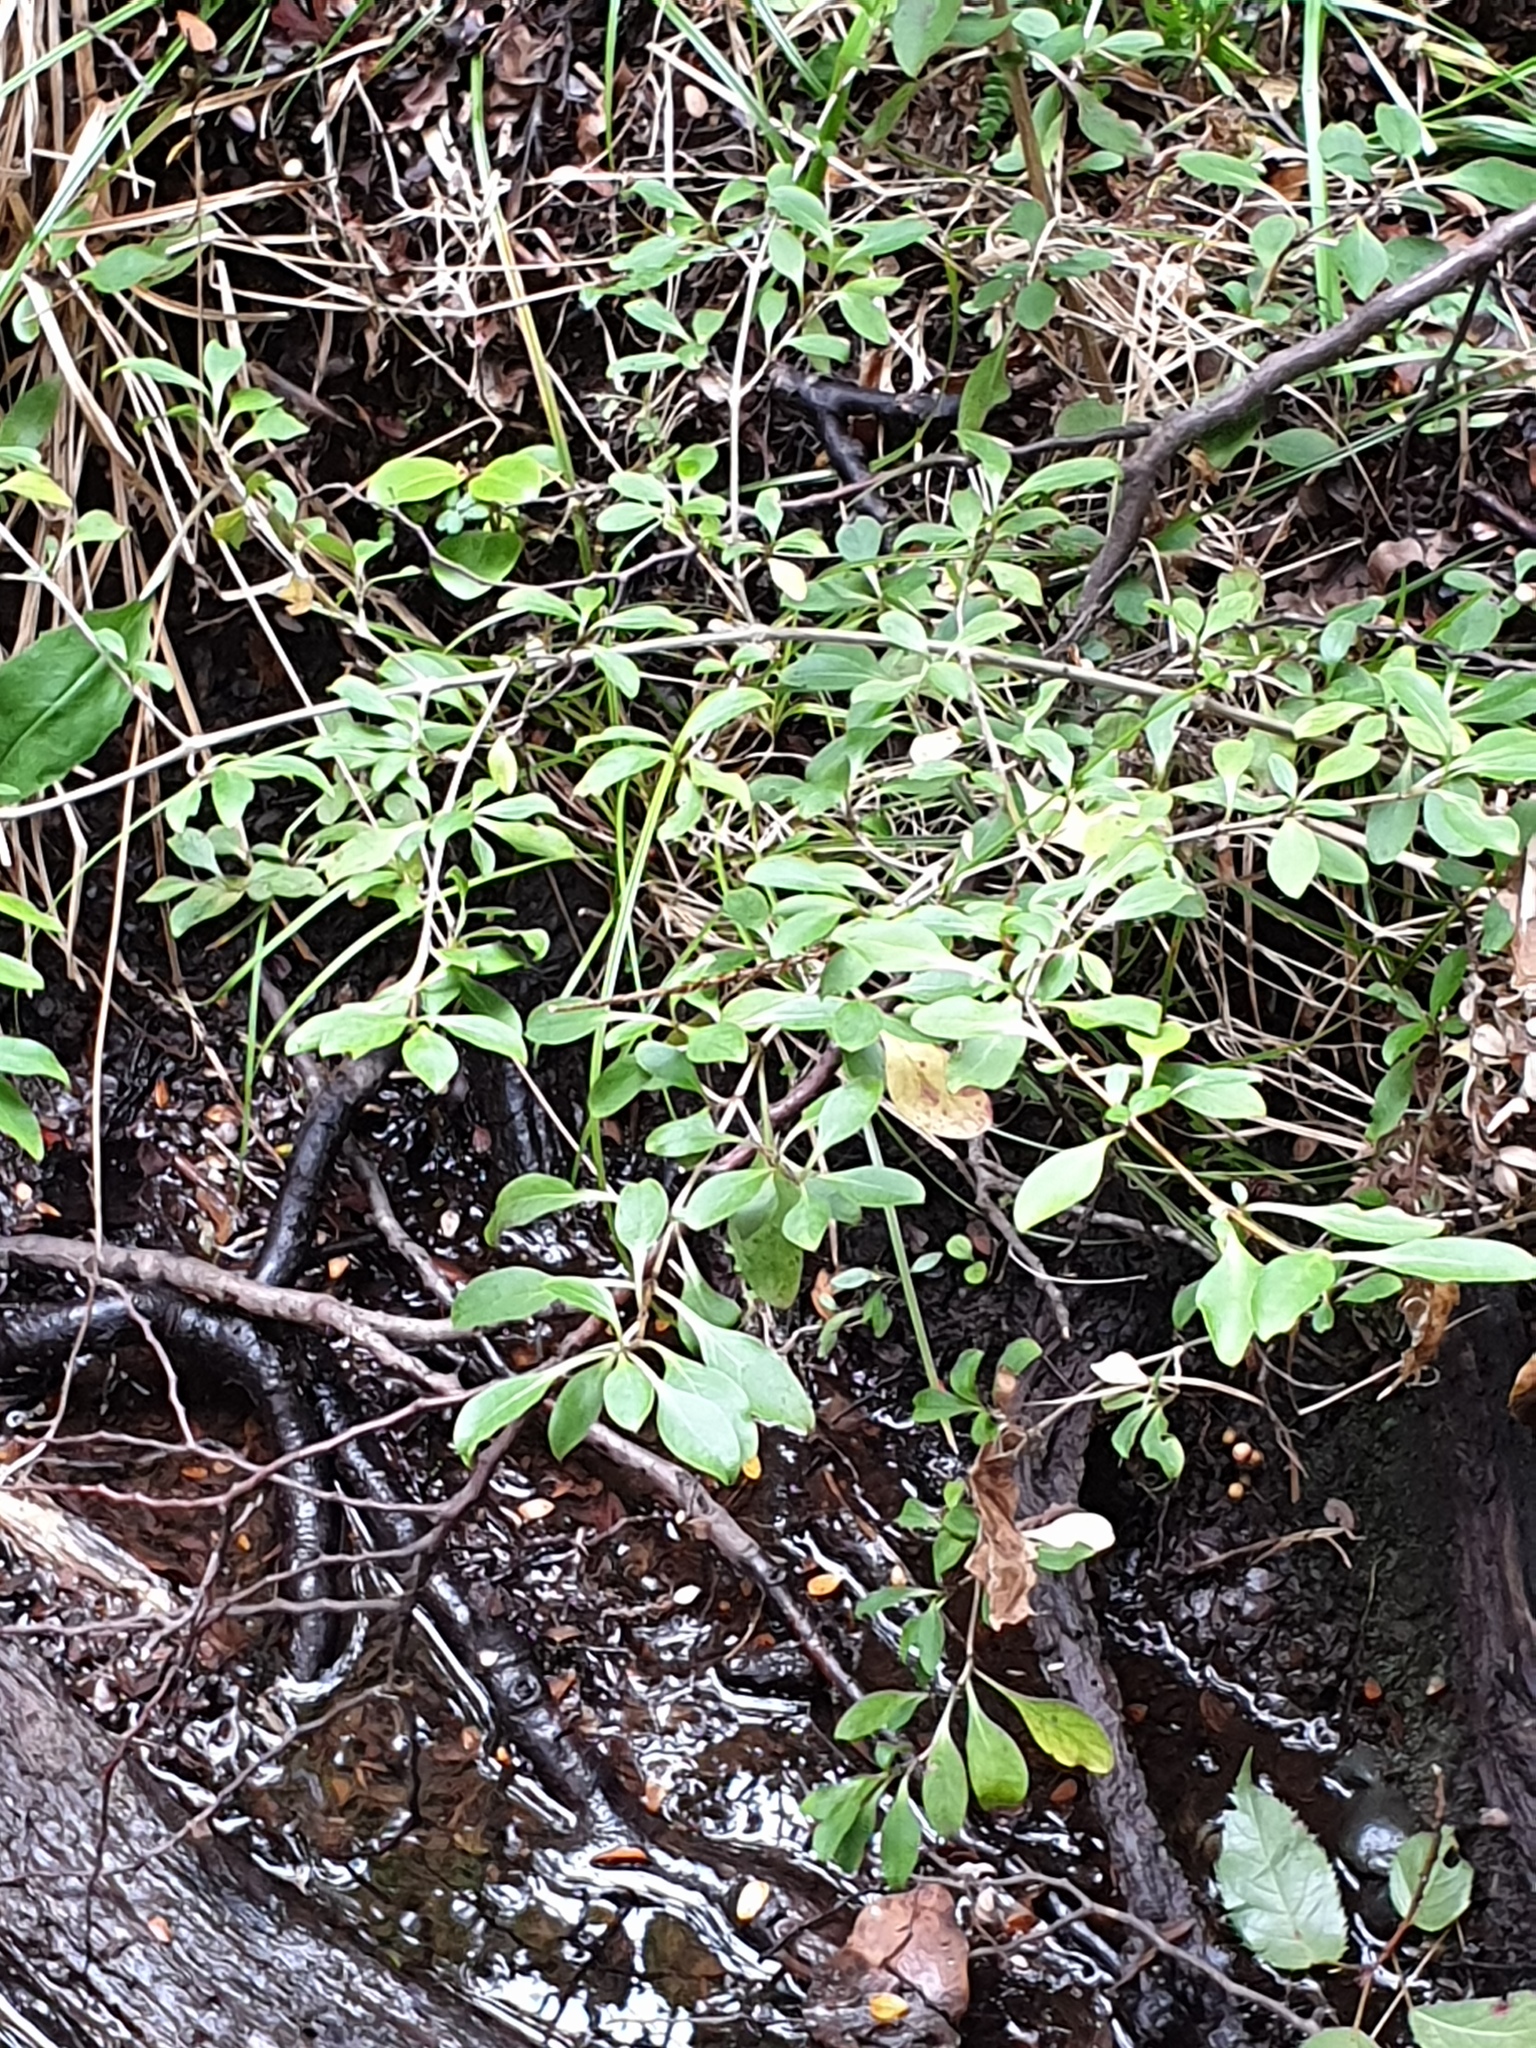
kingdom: Plantae
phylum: Tracheophyta
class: Magnoliopsida
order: Oxalidales
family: Elaeocarpaceae
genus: Aristotelia
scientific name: Aristotelia serrata
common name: New zealand wineberry
